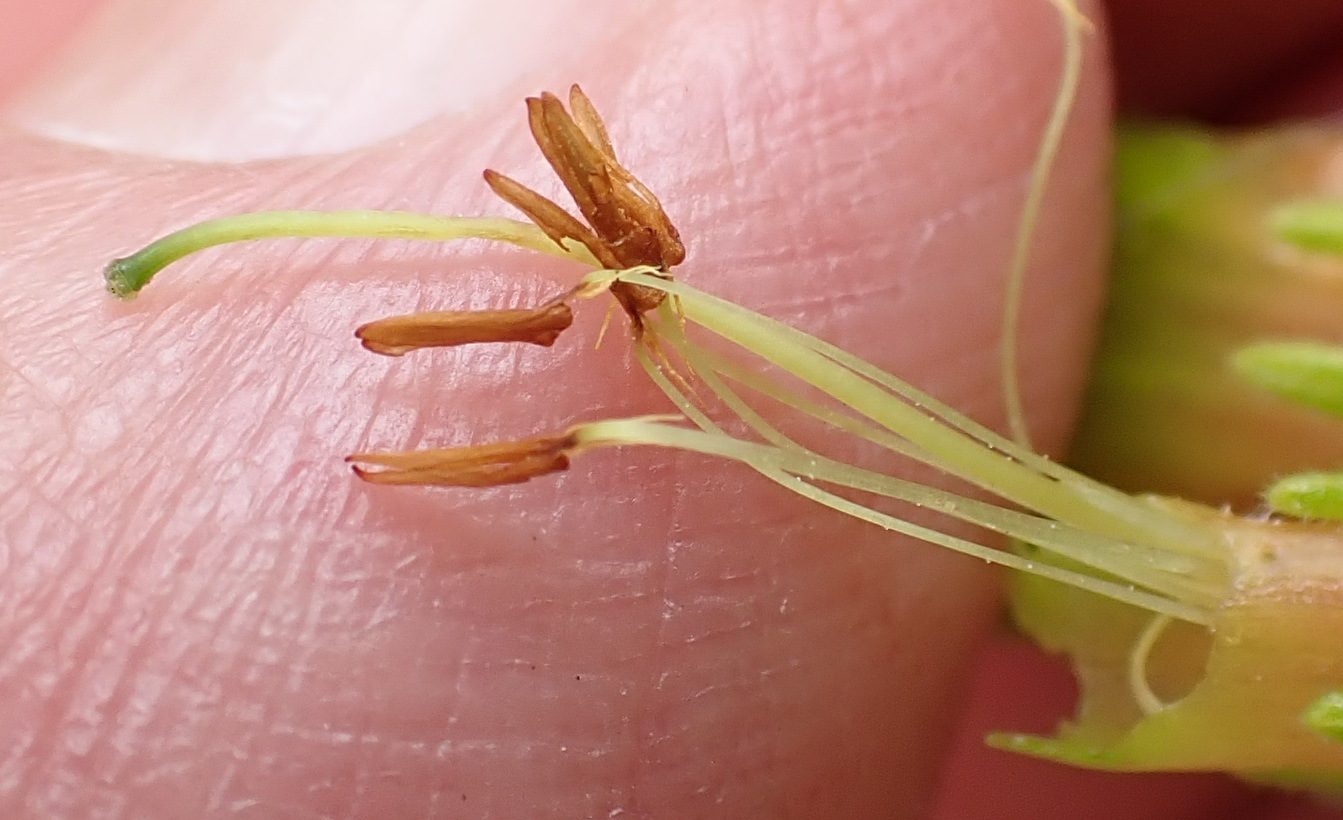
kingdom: Plantae
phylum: Tracheophyta
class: Magnoliopsida
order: Ericales
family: Ericaceae
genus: Erica
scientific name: Erica unicolor
